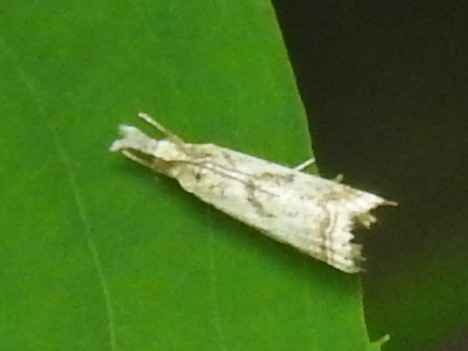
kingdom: Animalia
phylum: Arthropoda
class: Insecta
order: Lepidoptera
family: Crambidae
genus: Microcrambus
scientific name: Microcrambus elegans
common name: Elegant grass-veneer
